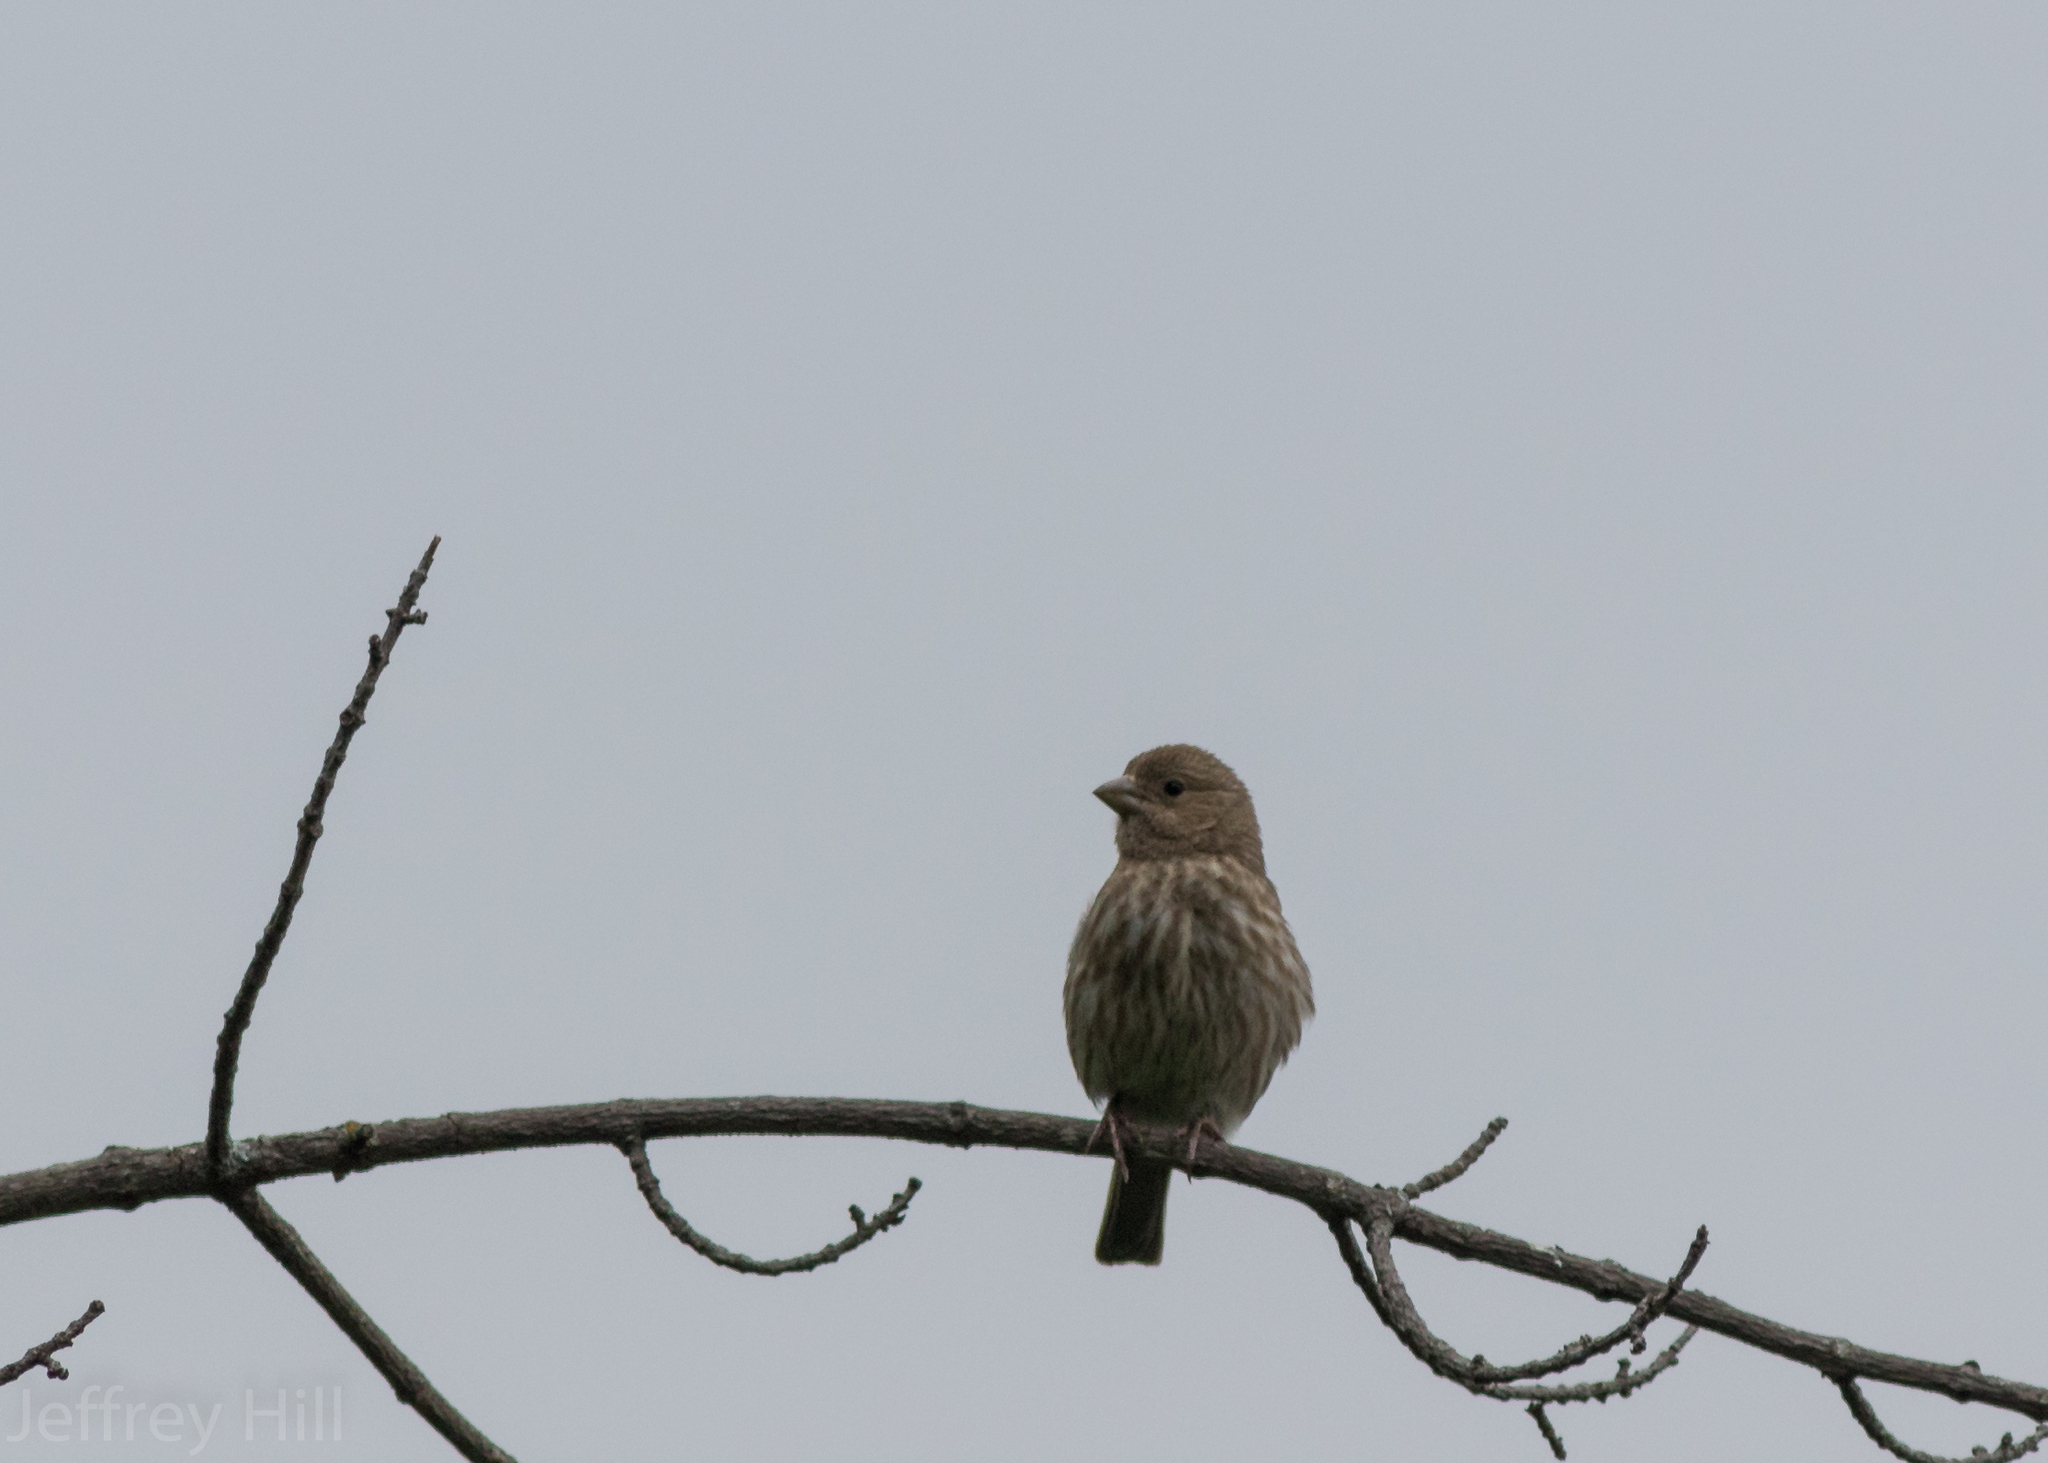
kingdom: Animalia
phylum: Chordata
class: Aves
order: Passeriformes
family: Fringillidae
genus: Haemorhous
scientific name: Haemorhous mexicanus
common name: House finch
